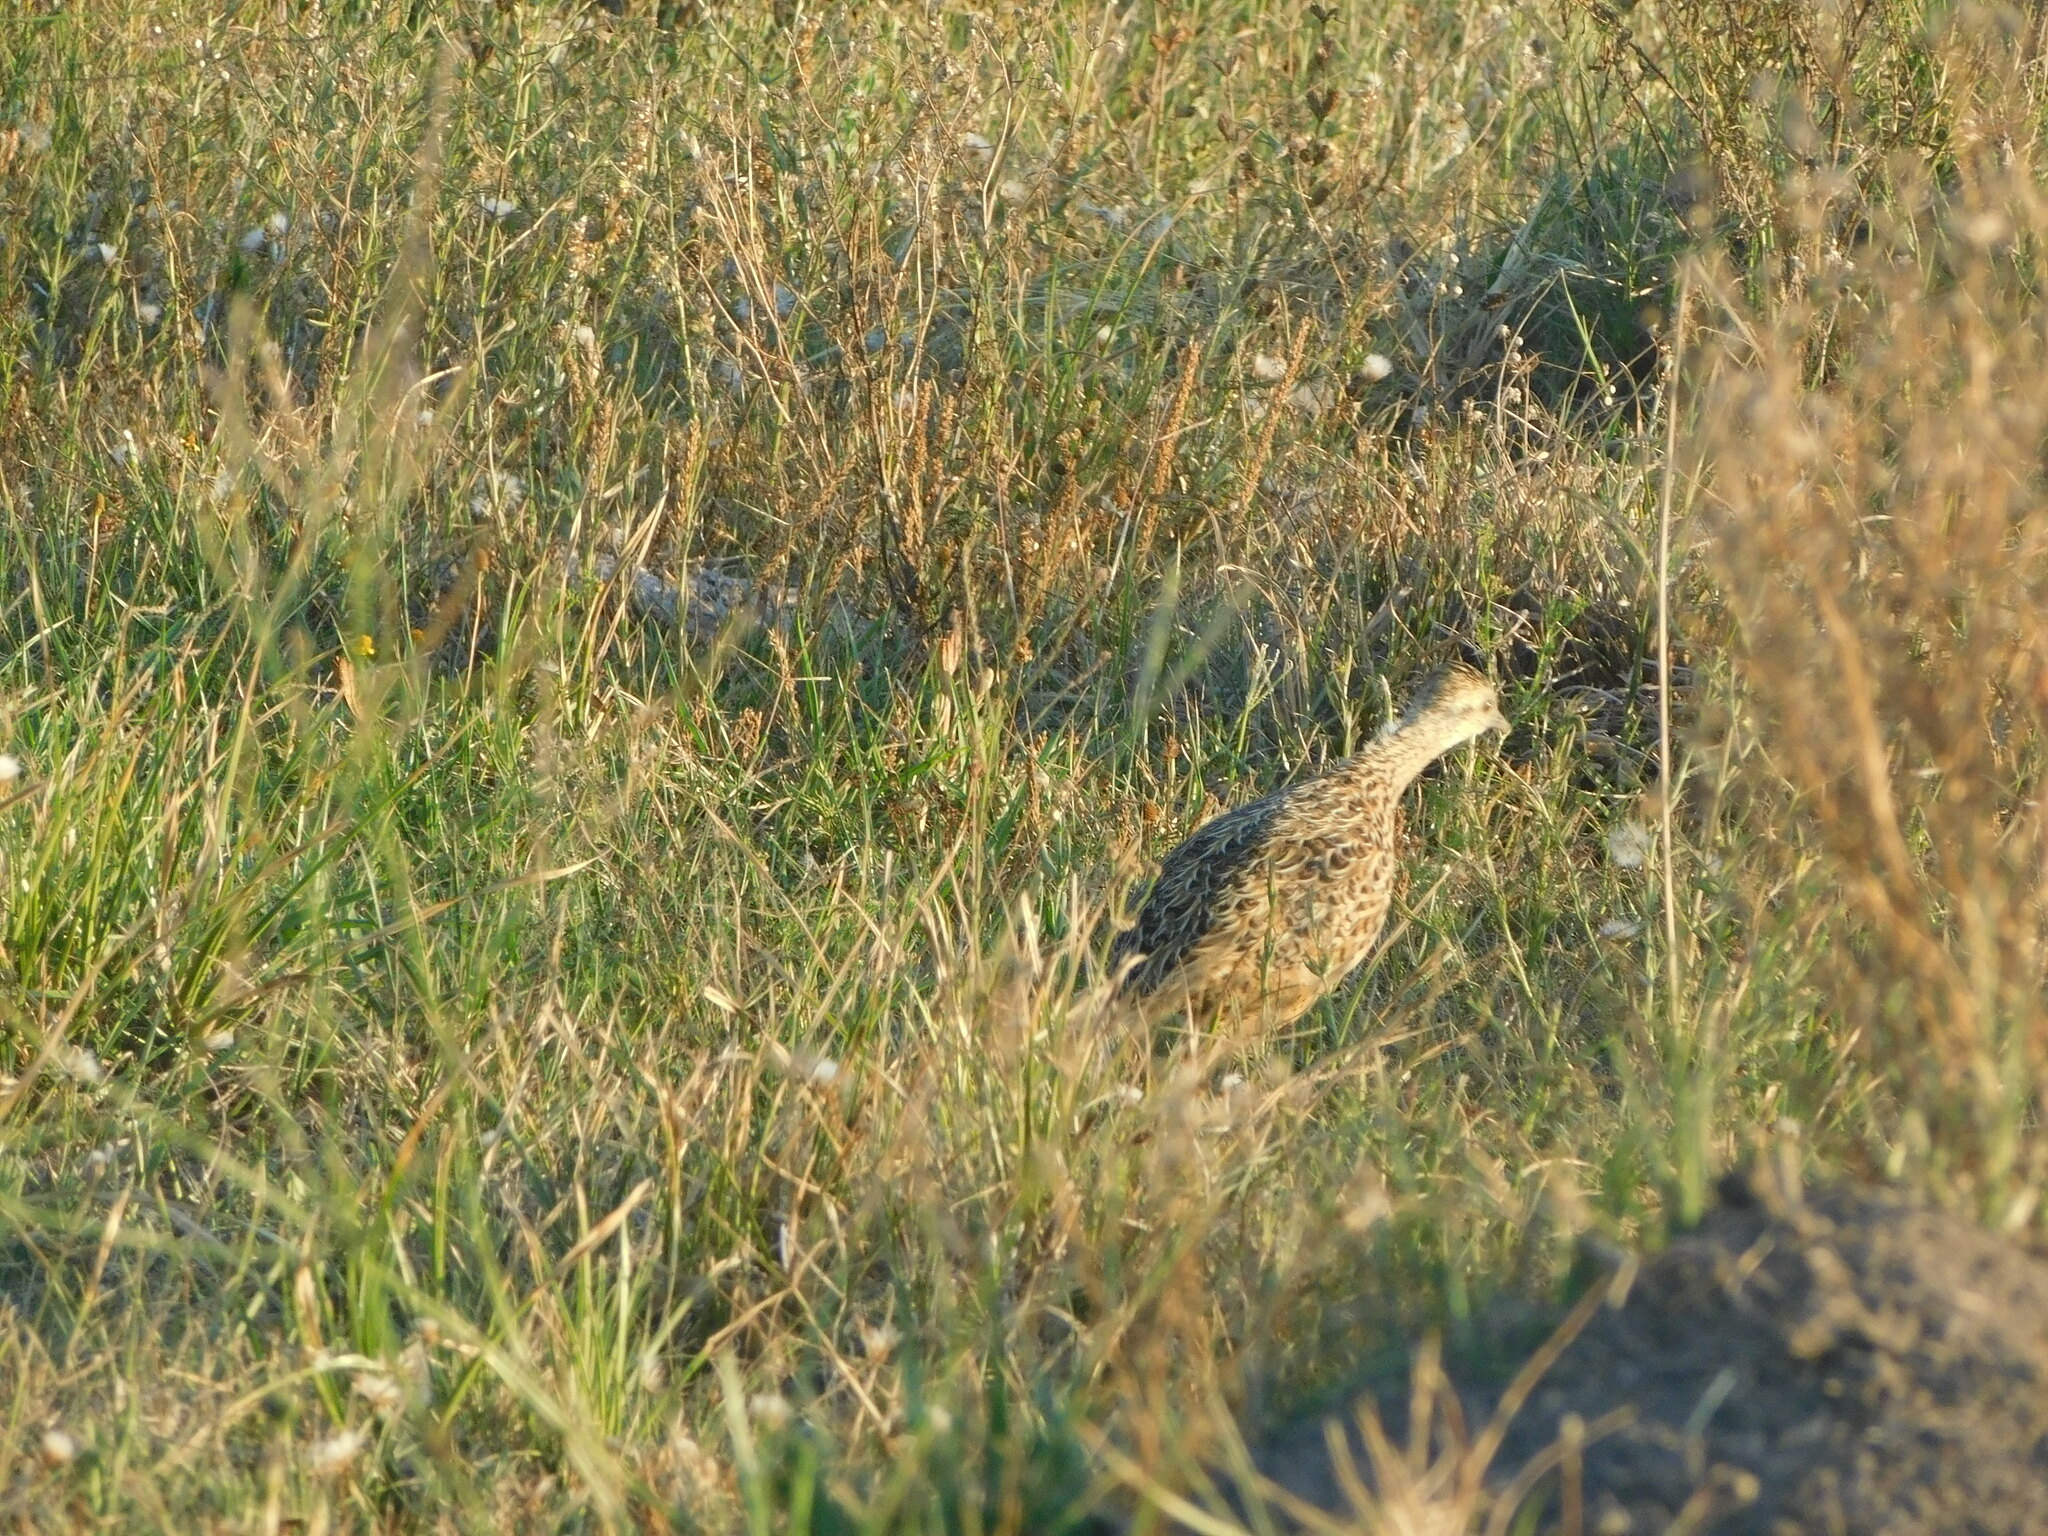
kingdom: Animalia
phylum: Chordata
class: Aves
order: Tinamiformes
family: Tinamidae
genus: Nothura
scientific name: Nothura maculosa
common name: Spotted nothura
